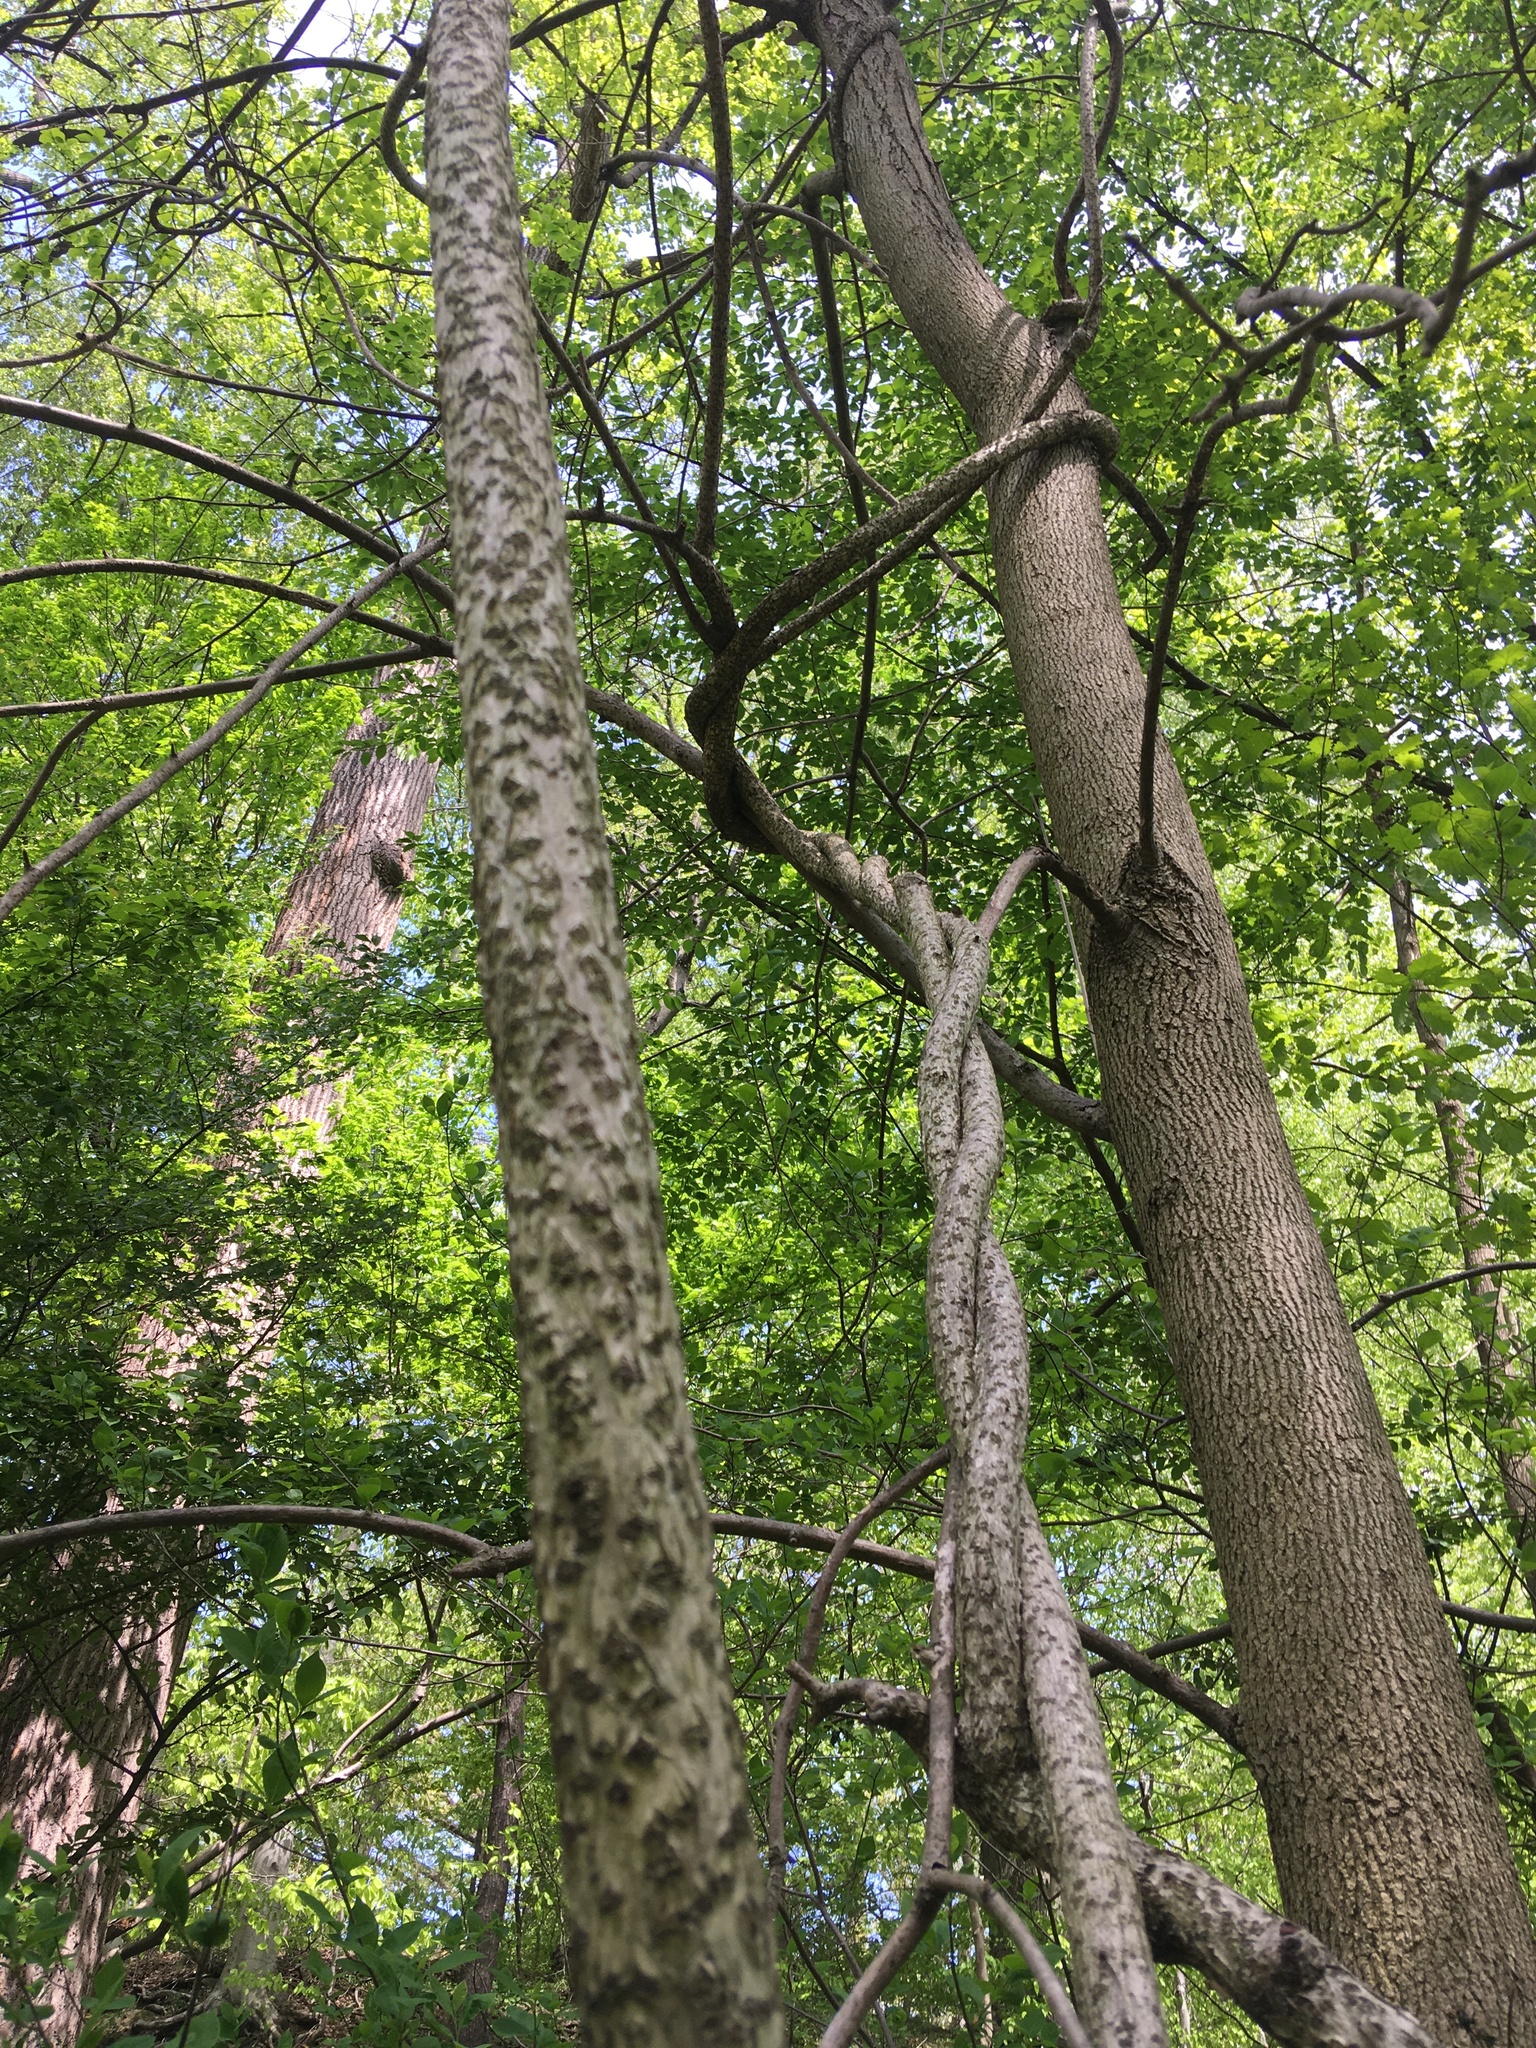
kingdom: Plantae
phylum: Tracheophyta
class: Magnoliopsida
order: Celastrales
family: Celastraceae
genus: Celastrus
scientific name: Celastrus orbiculatus
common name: Oriental bittersweet
